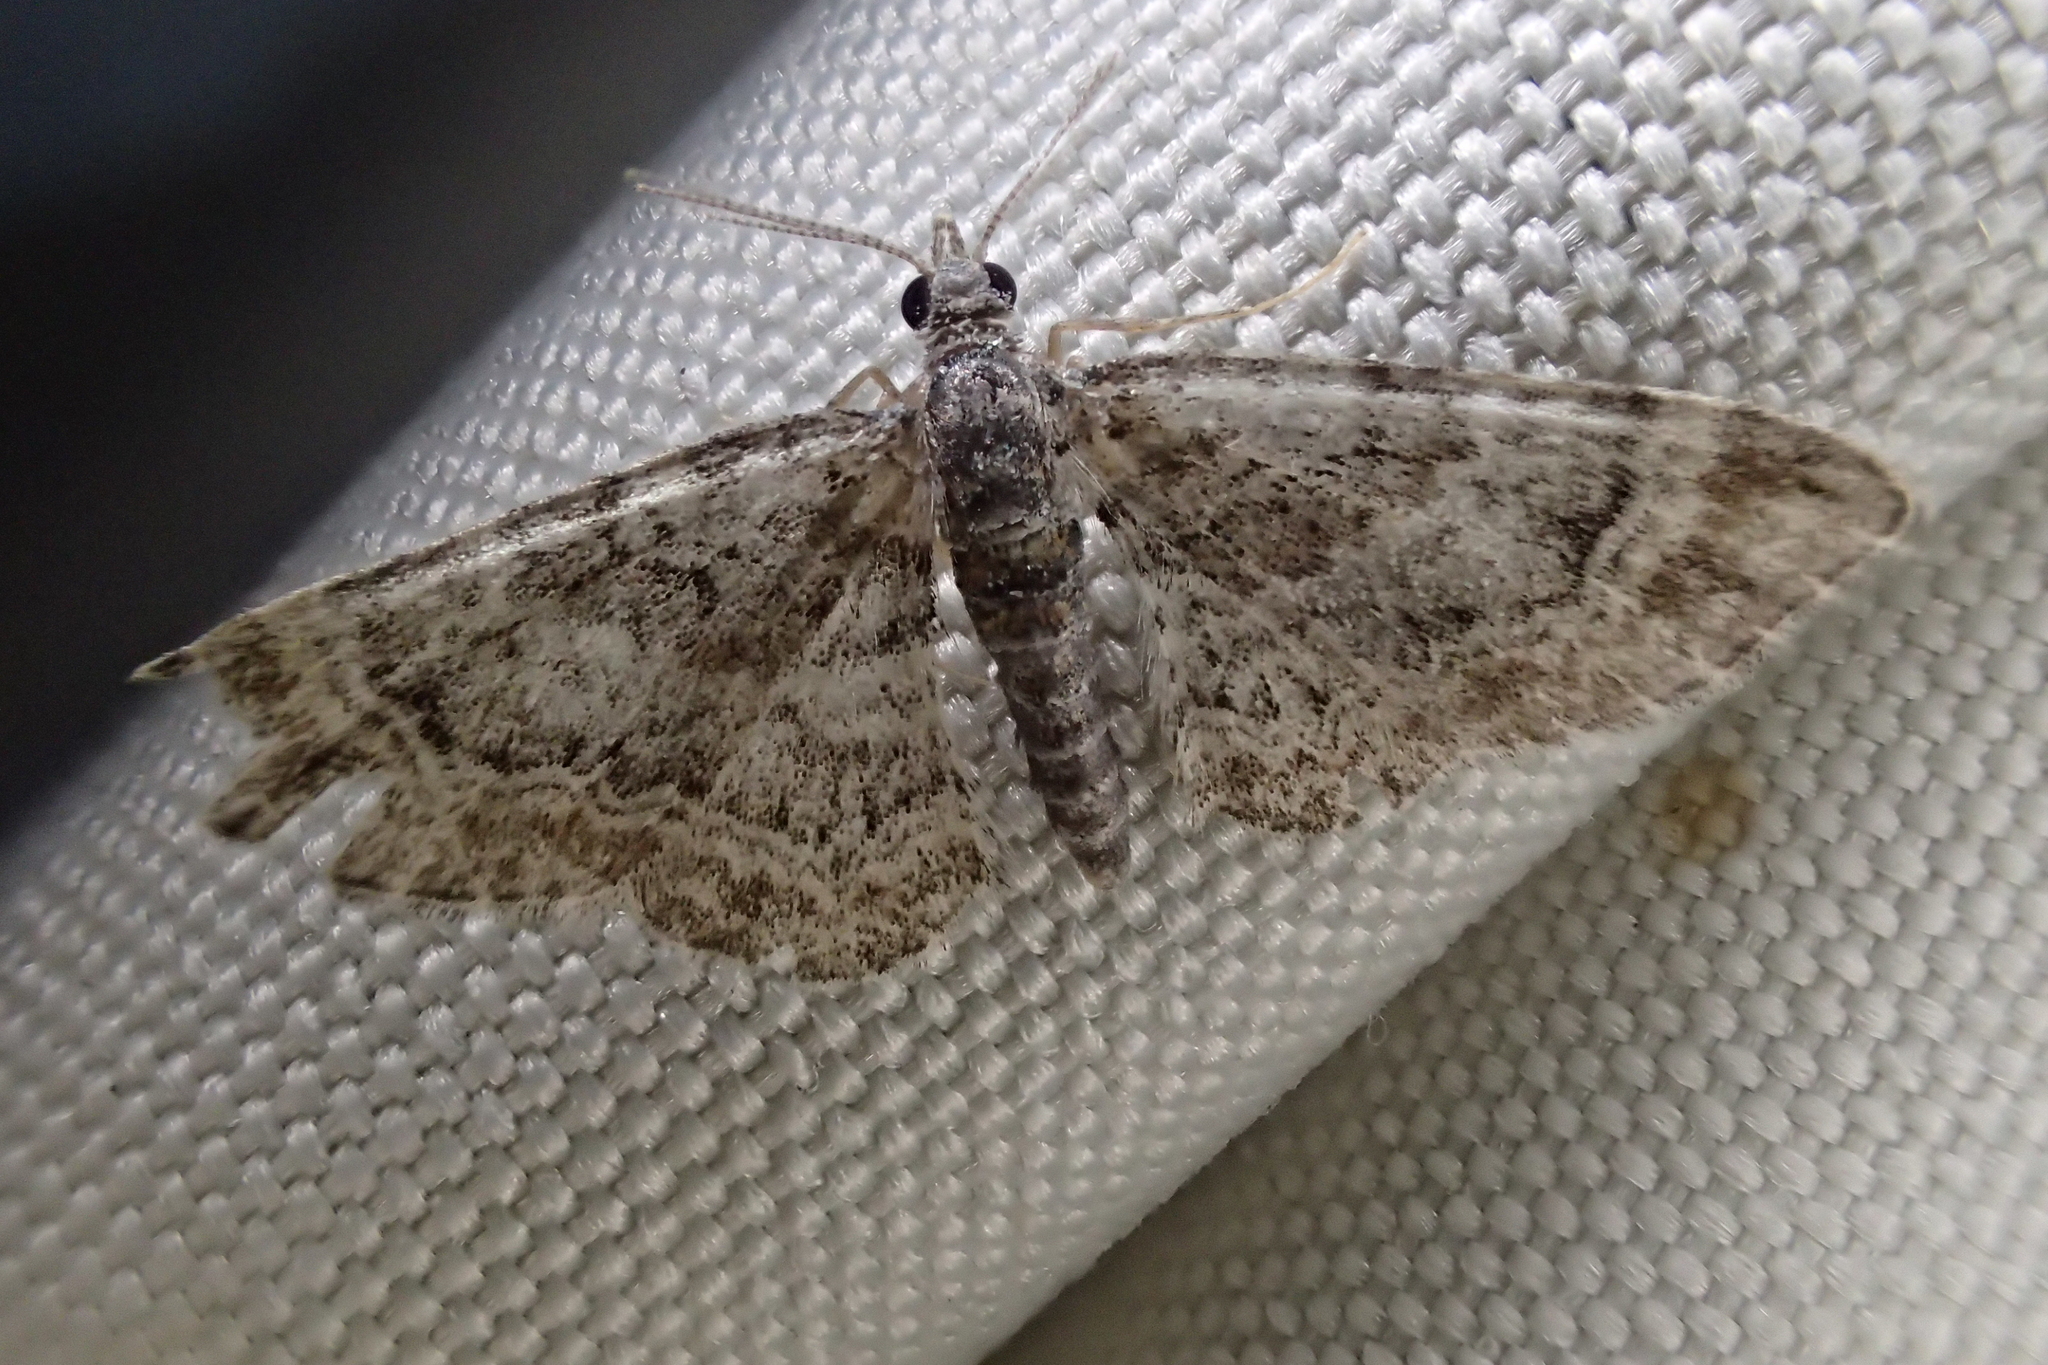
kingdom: Animalia
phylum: Arthropoda
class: Insecta
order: Lepidoptera
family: Geometridae
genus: Gymnoscelis
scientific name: Gymnoscelis rufifasciata
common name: Double-striped pug
